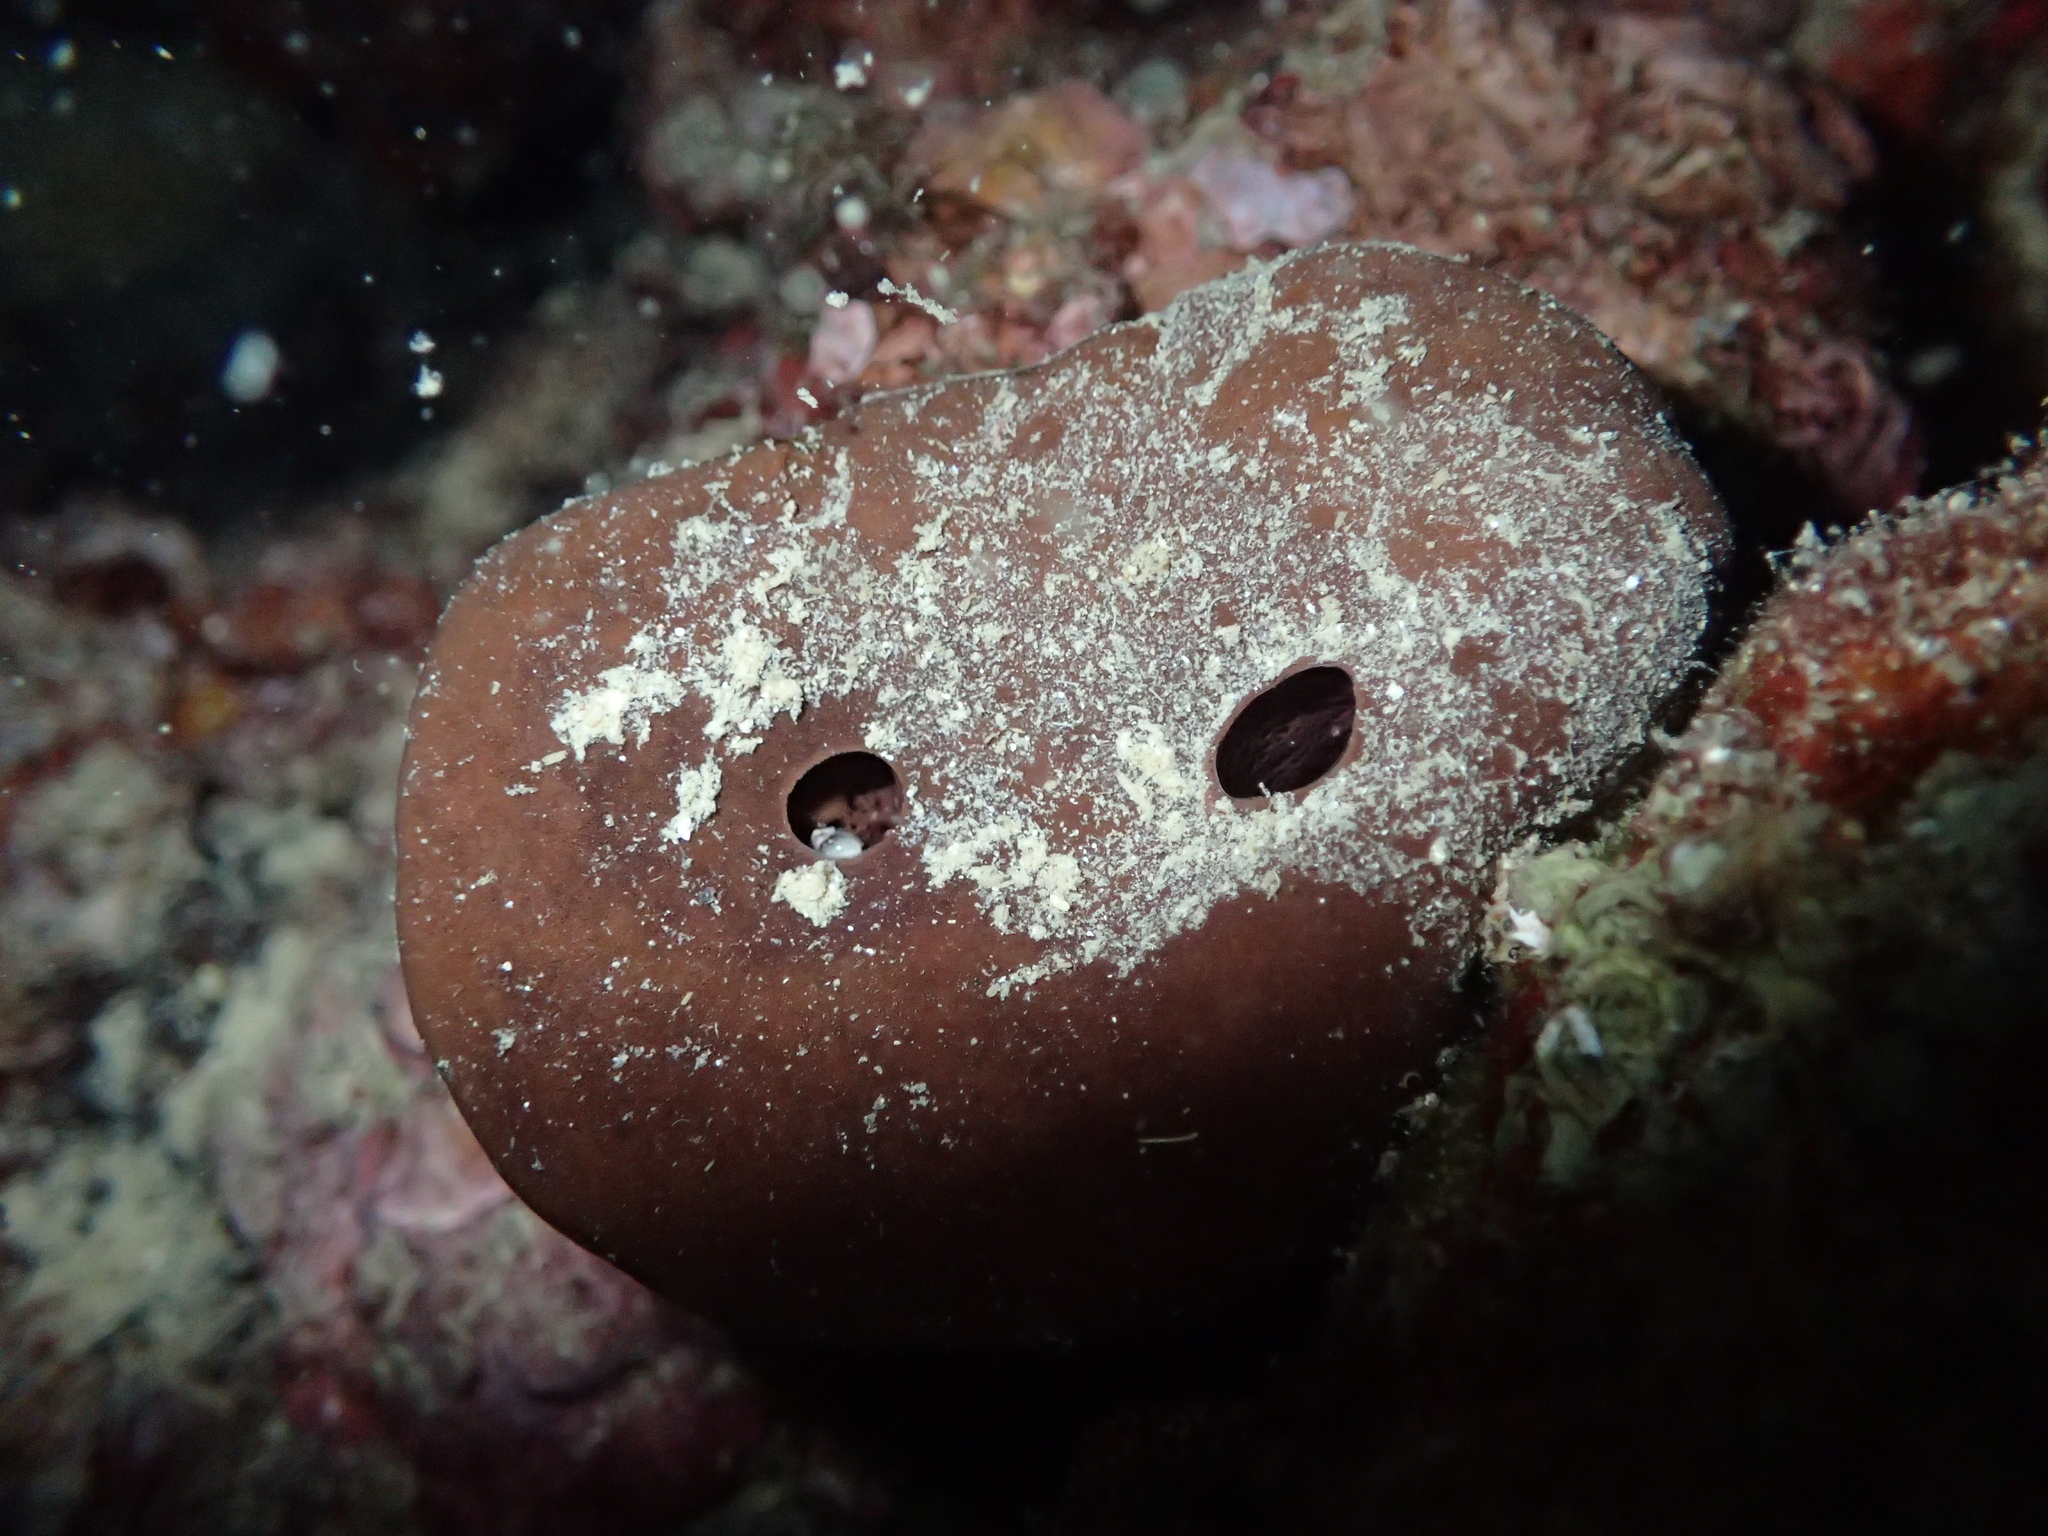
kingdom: Animalia
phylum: Porifera
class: Demospongiae
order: Haplosclerida
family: Petrosiidae
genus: Petrosia
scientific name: Petrosia ficiformis
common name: Stony sponge
